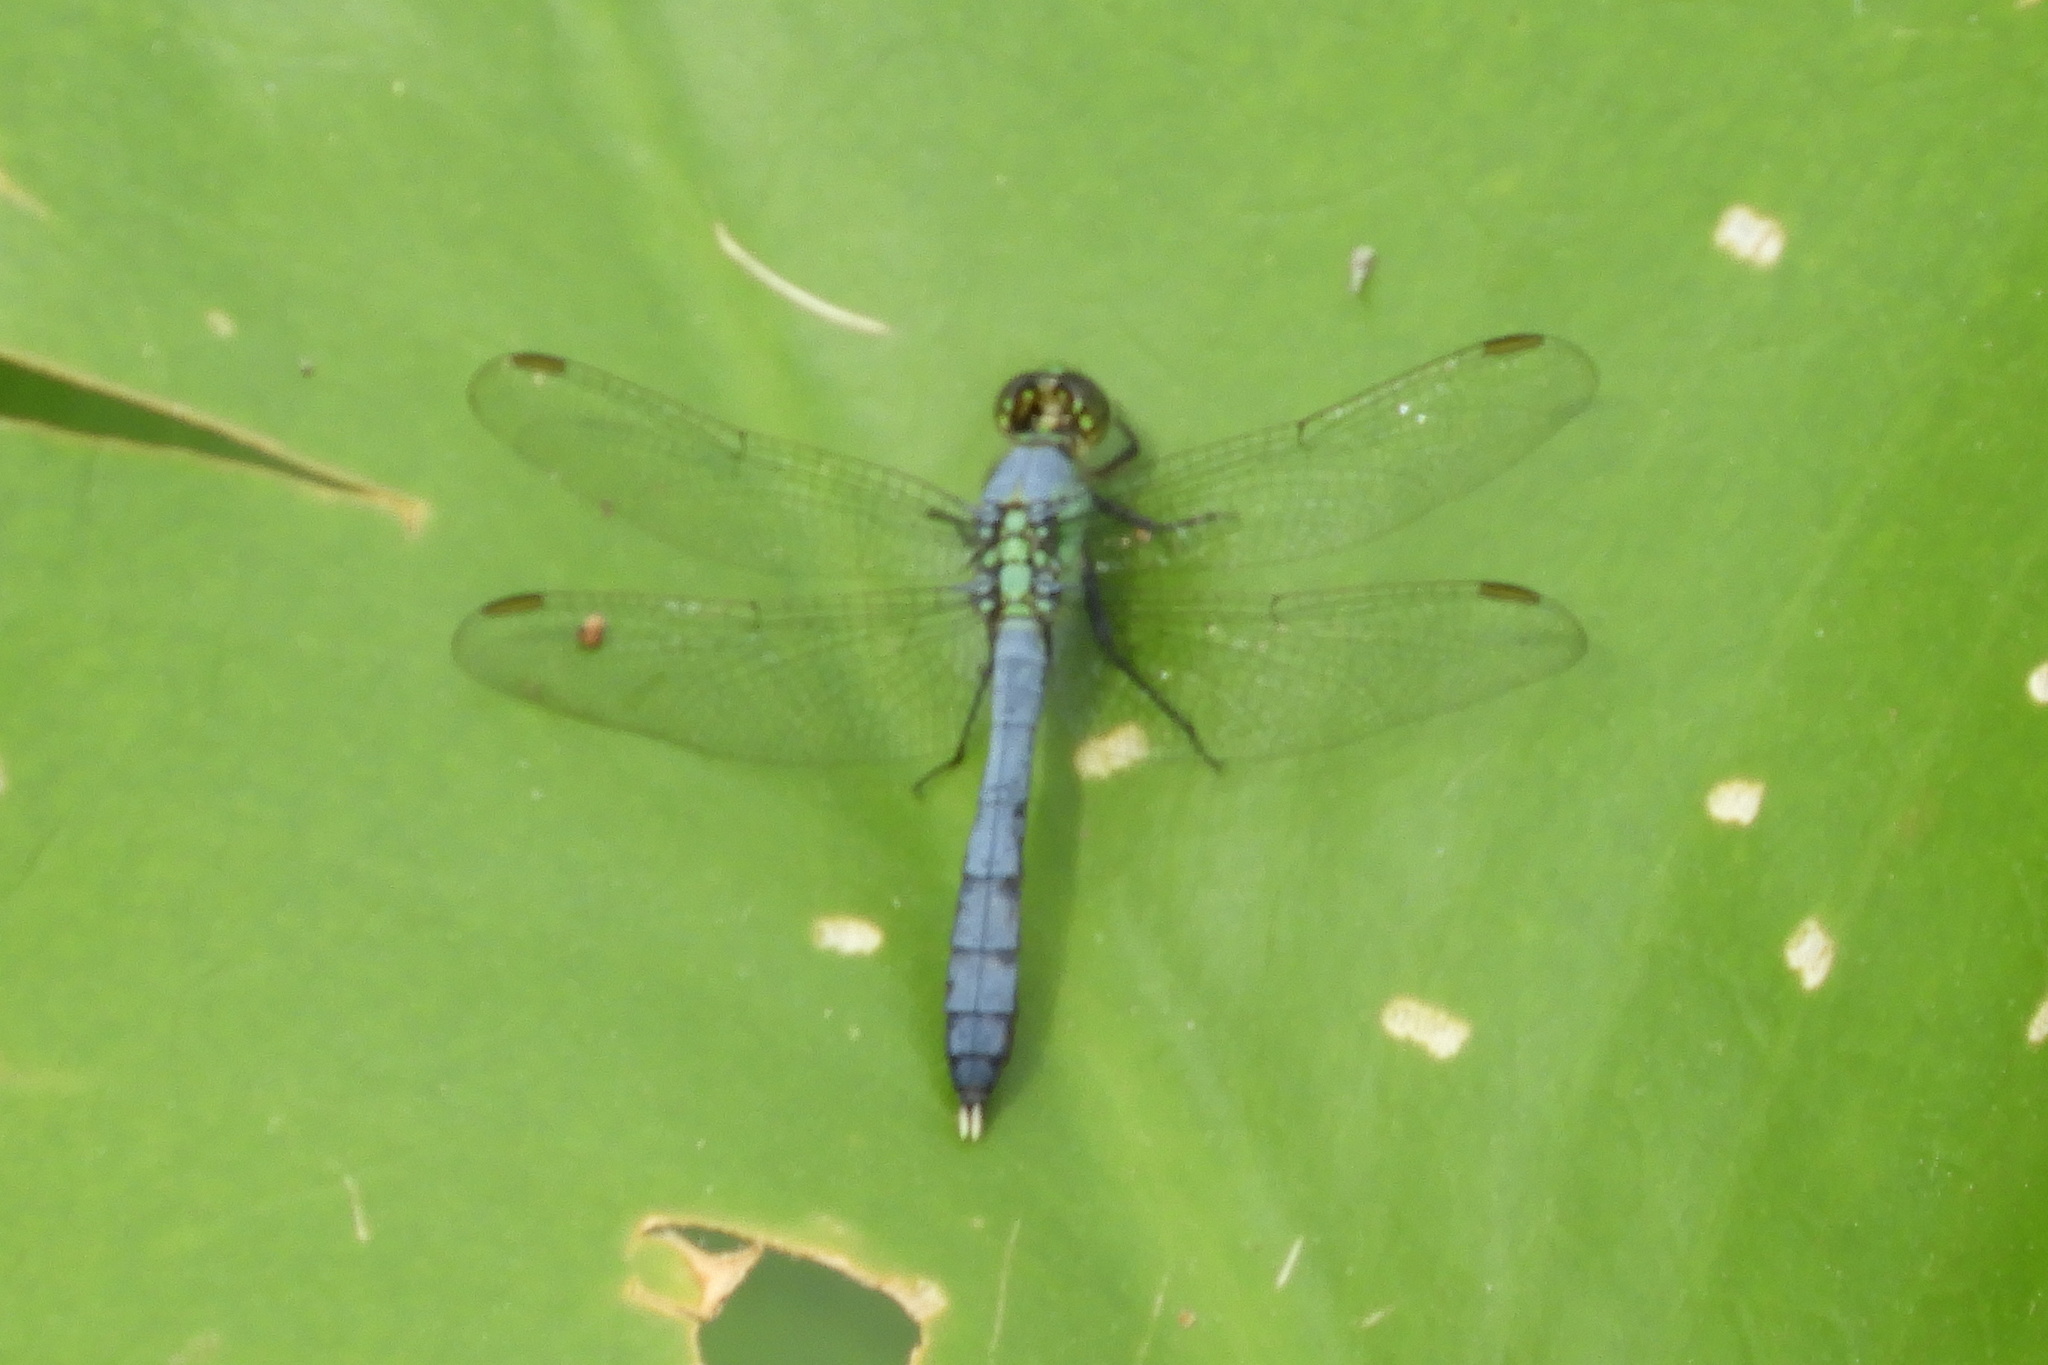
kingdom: Animalia
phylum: Arthropoda
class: Insecta
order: Odonata
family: Libellulidae
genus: Erythemis
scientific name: Erythemis simplicicollis
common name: Eastern pondhawk
